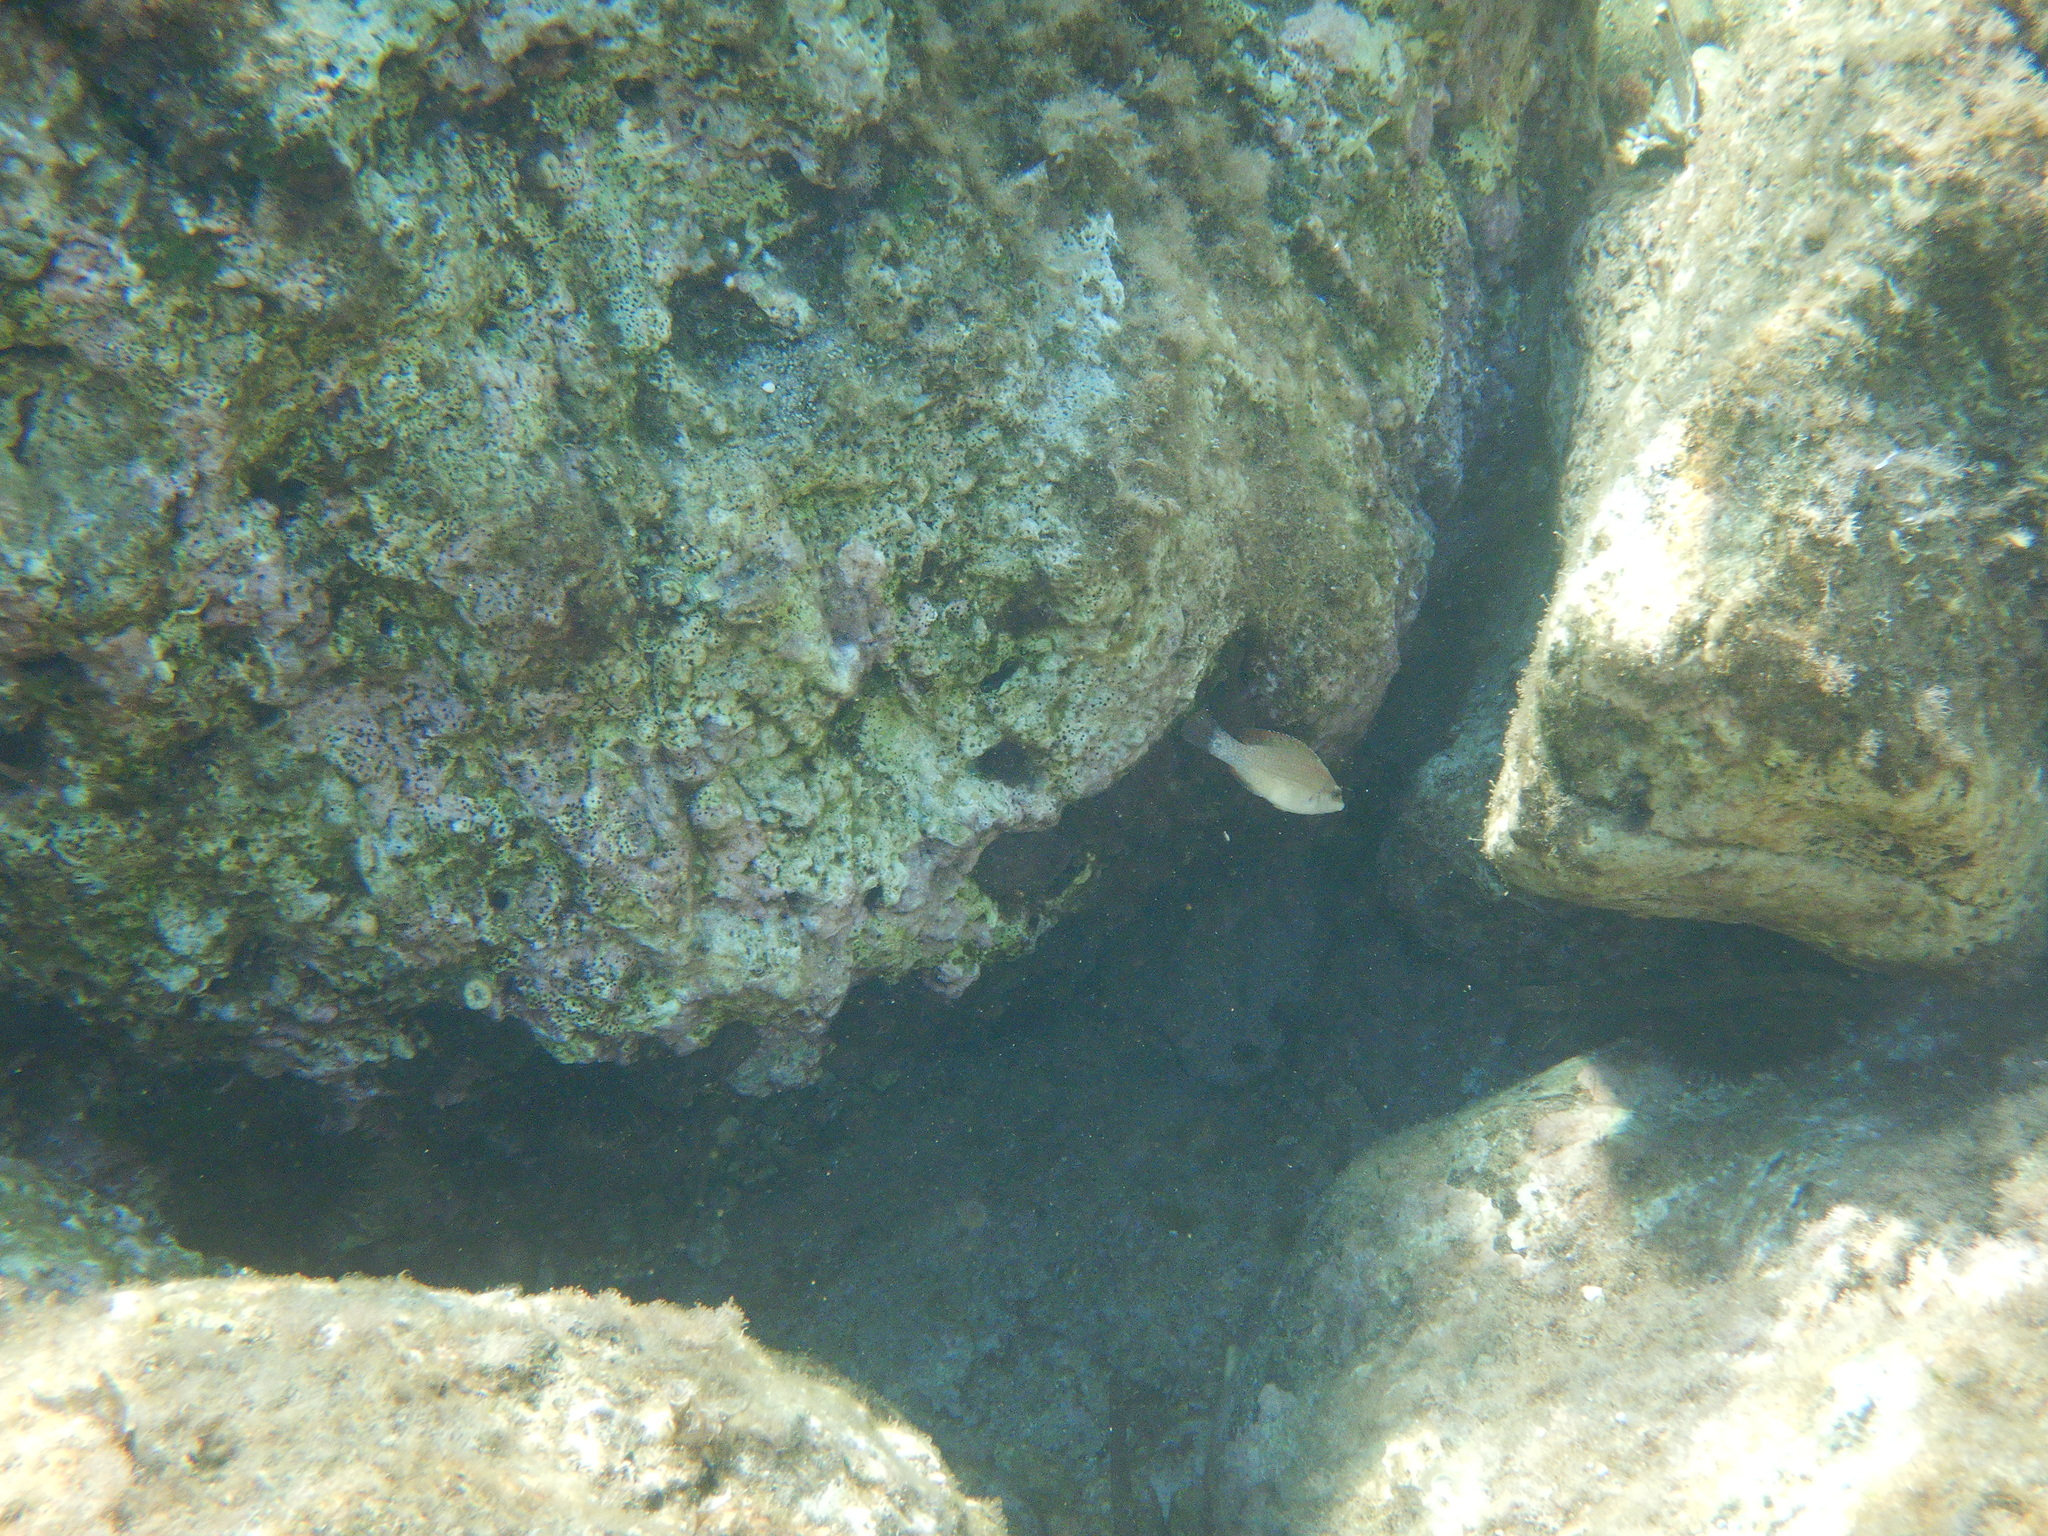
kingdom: Animalia
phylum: Chordata
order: Perciformes
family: Labridae
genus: Symphodus
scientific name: Symphodus
